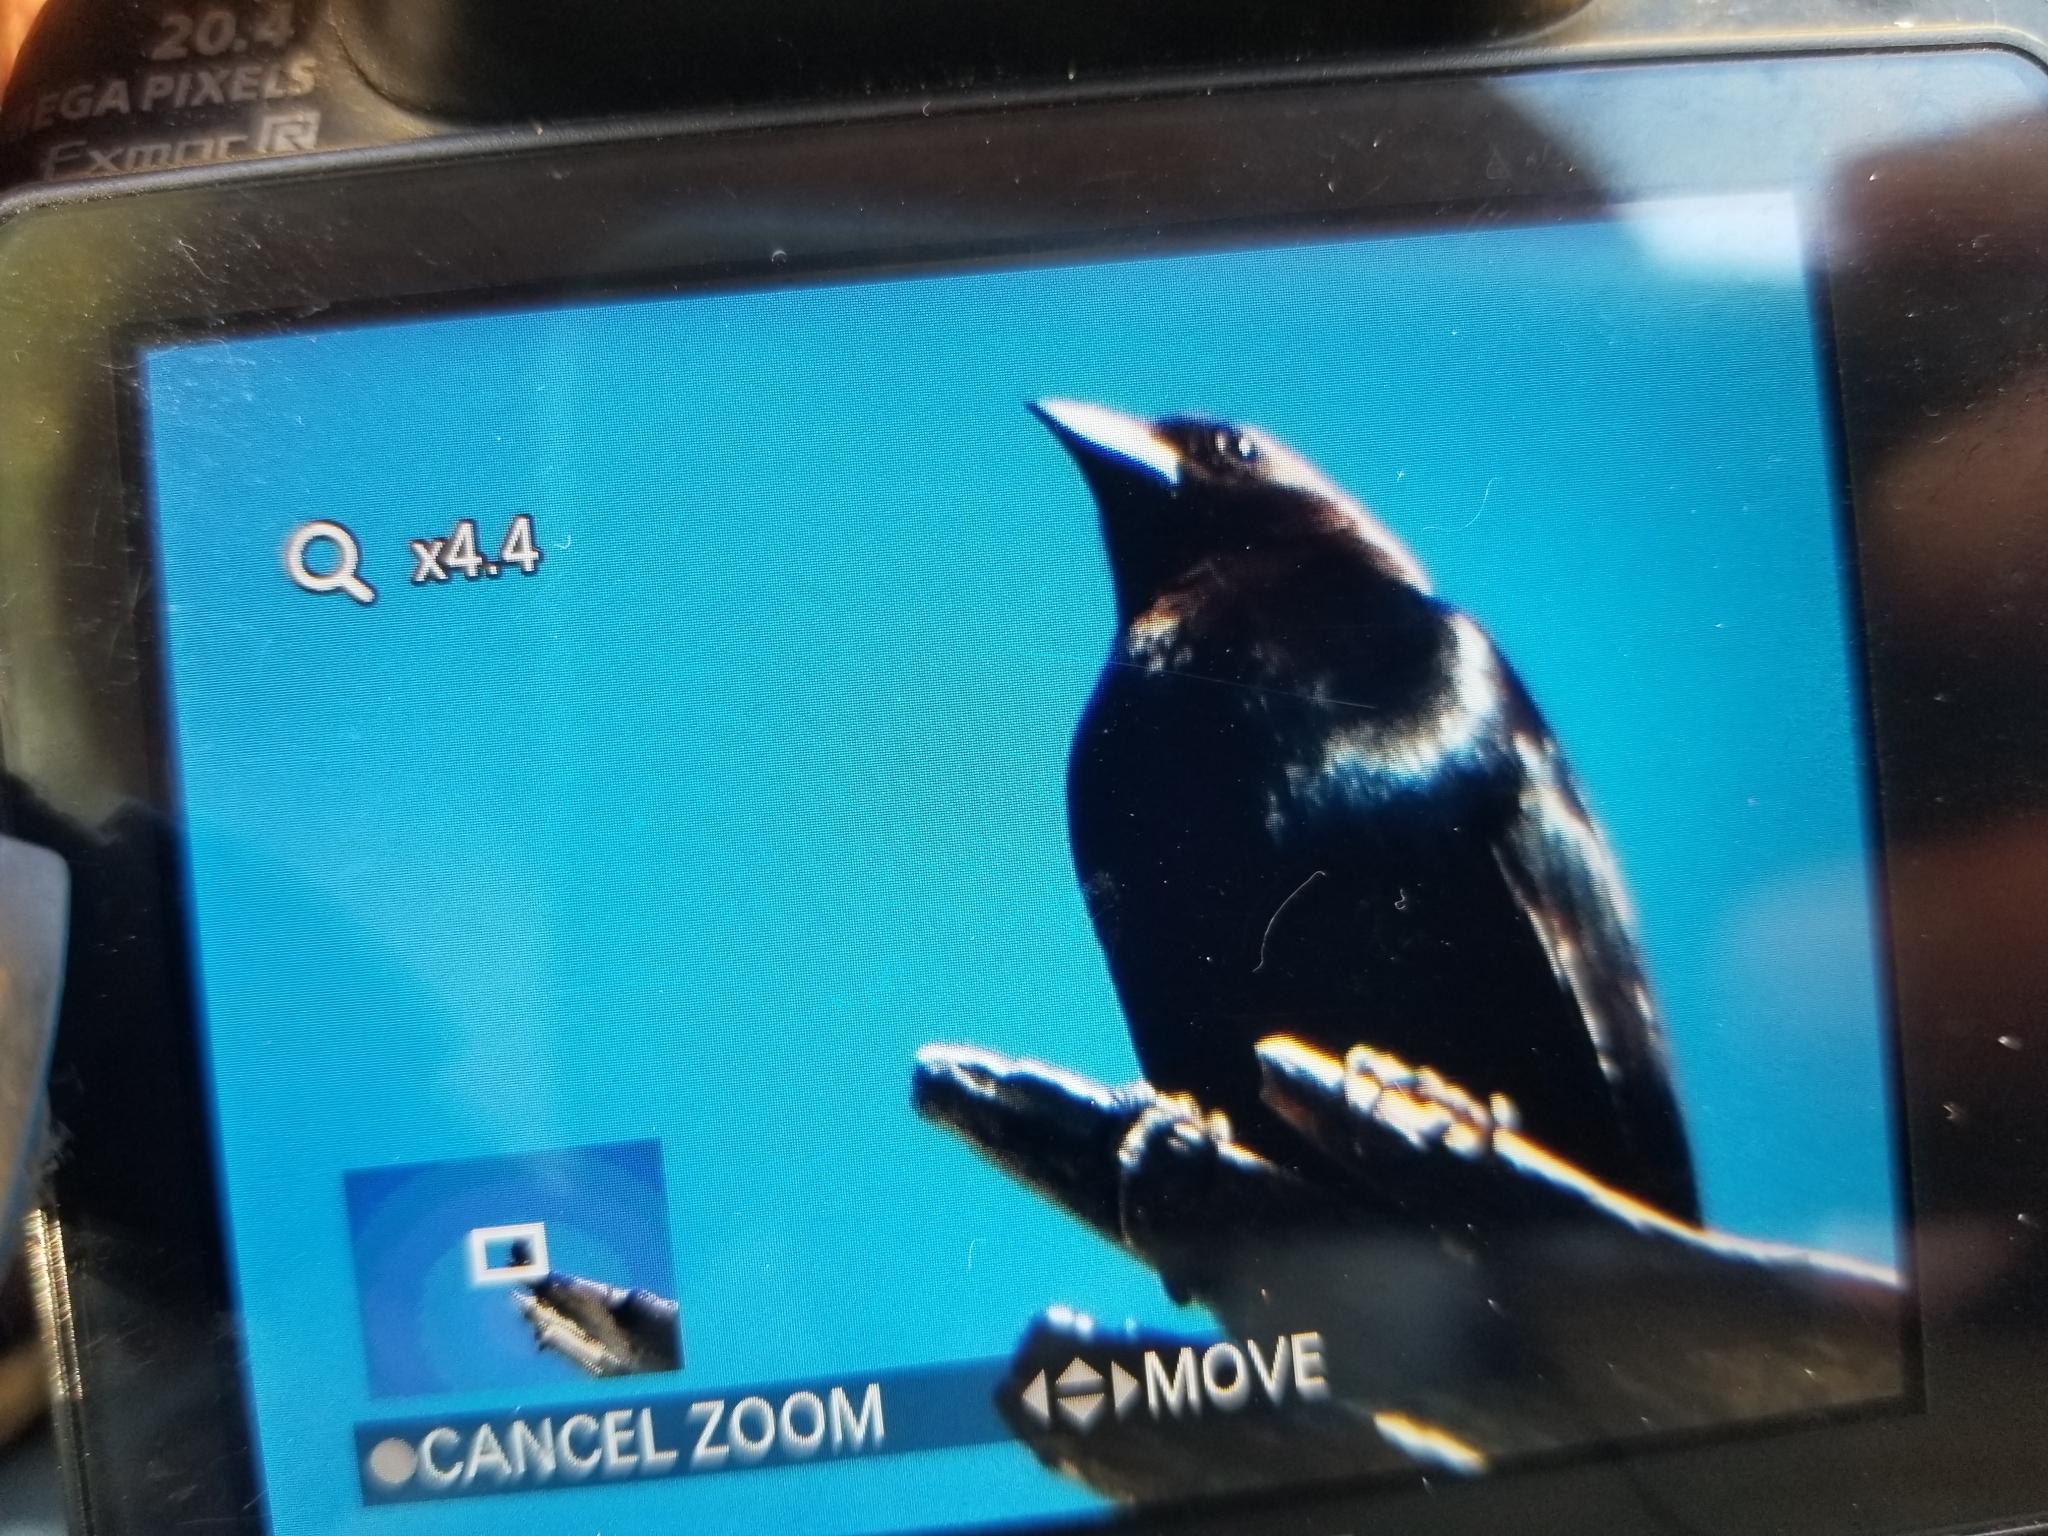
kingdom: Animalia
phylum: Chordata
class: Aves
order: Passeriformes
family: Icteridae
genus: Molothrus
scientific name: Molothrus ater
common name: Brown-headed cowbird
